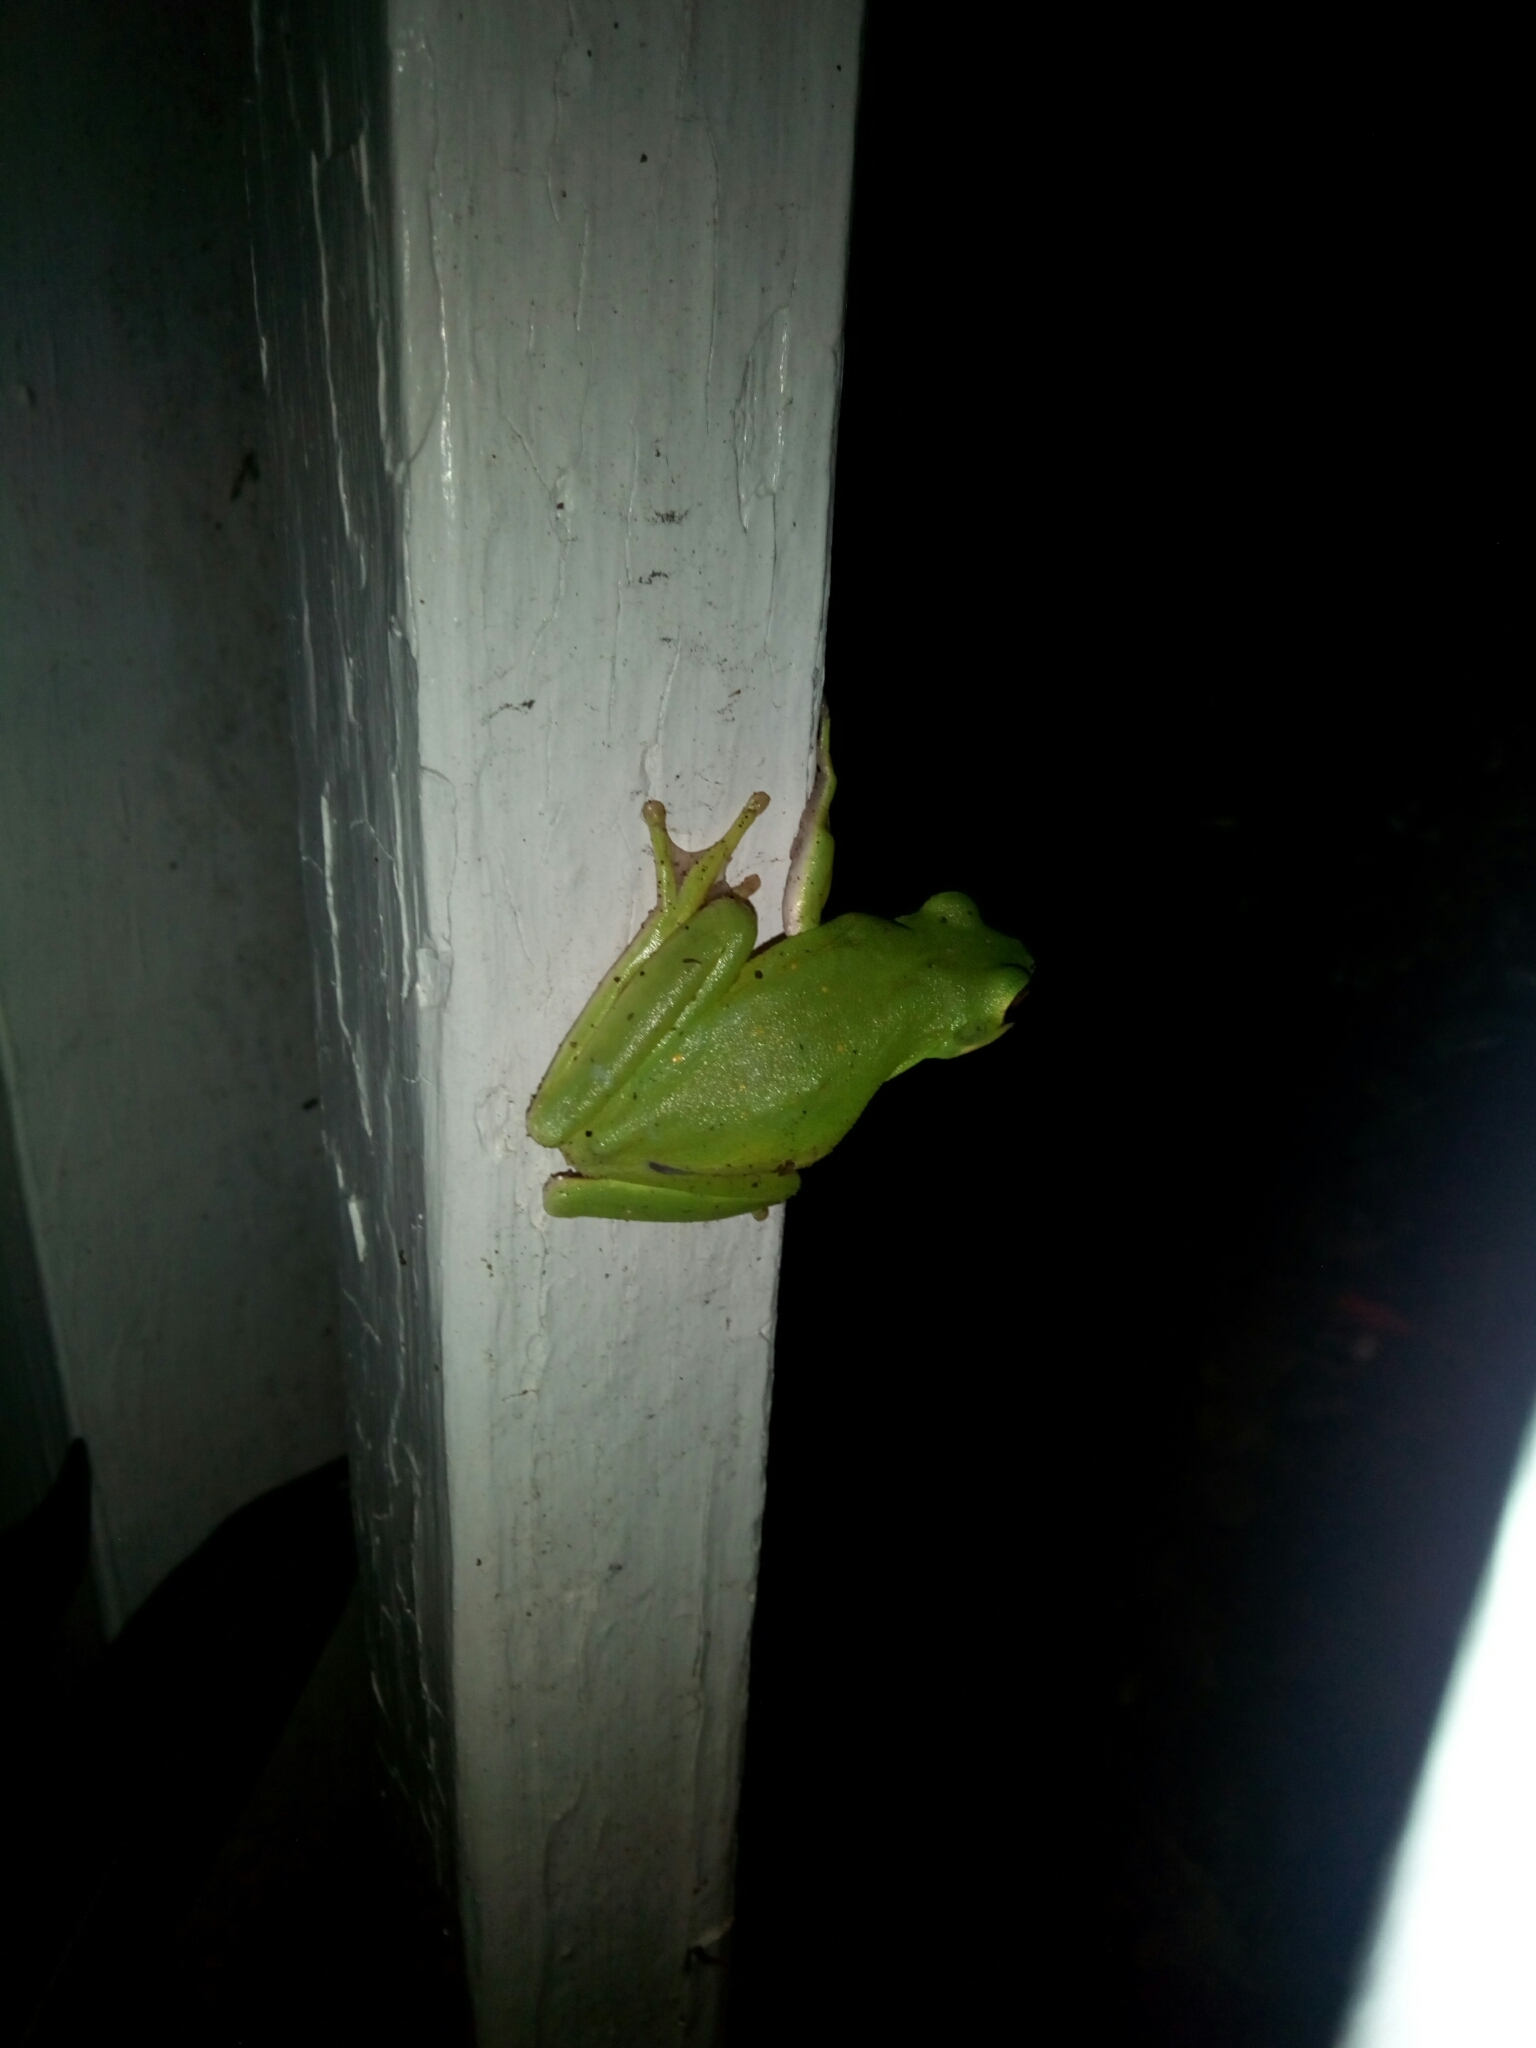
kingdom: Animalia
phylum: Chordata
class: Amphibia
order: Anura
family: Hylidae
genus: Dryophytes
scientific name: Dryophytes cinereus
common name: Green treefrog
